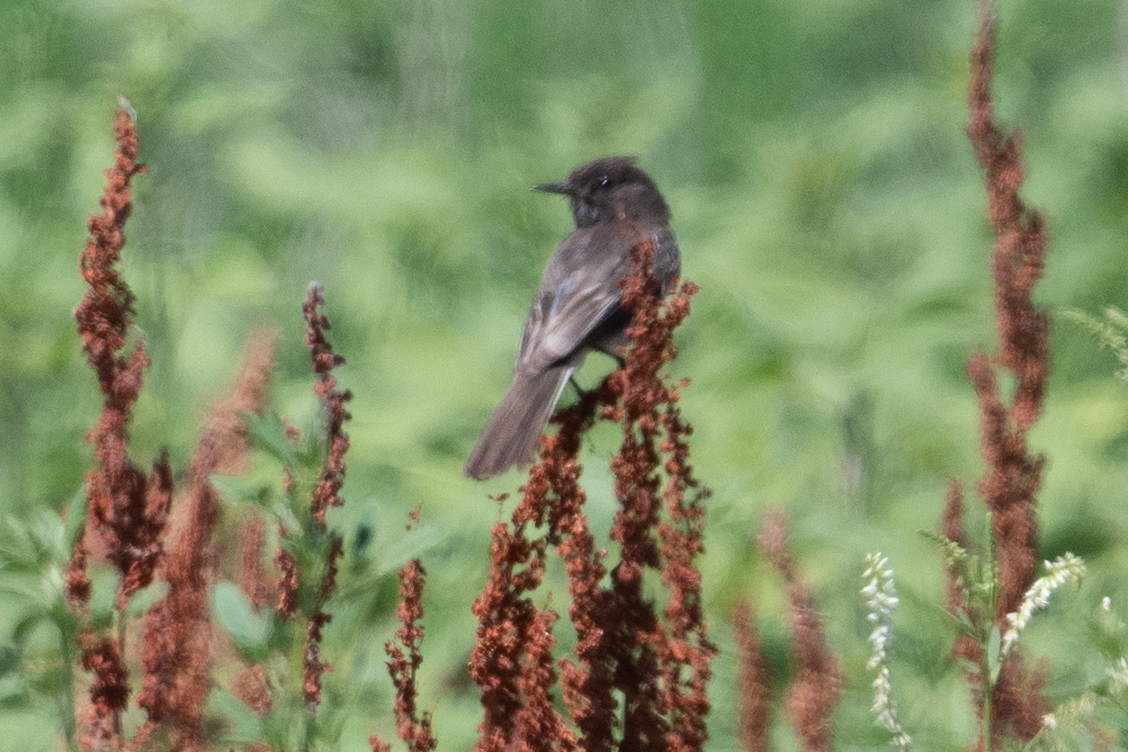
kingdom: Animalia
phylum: Chordata
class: Aves
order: Passeriformes
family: Tyrannidae
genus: Sayornis
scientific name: Sayornis nigricans
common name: Black phoebe
